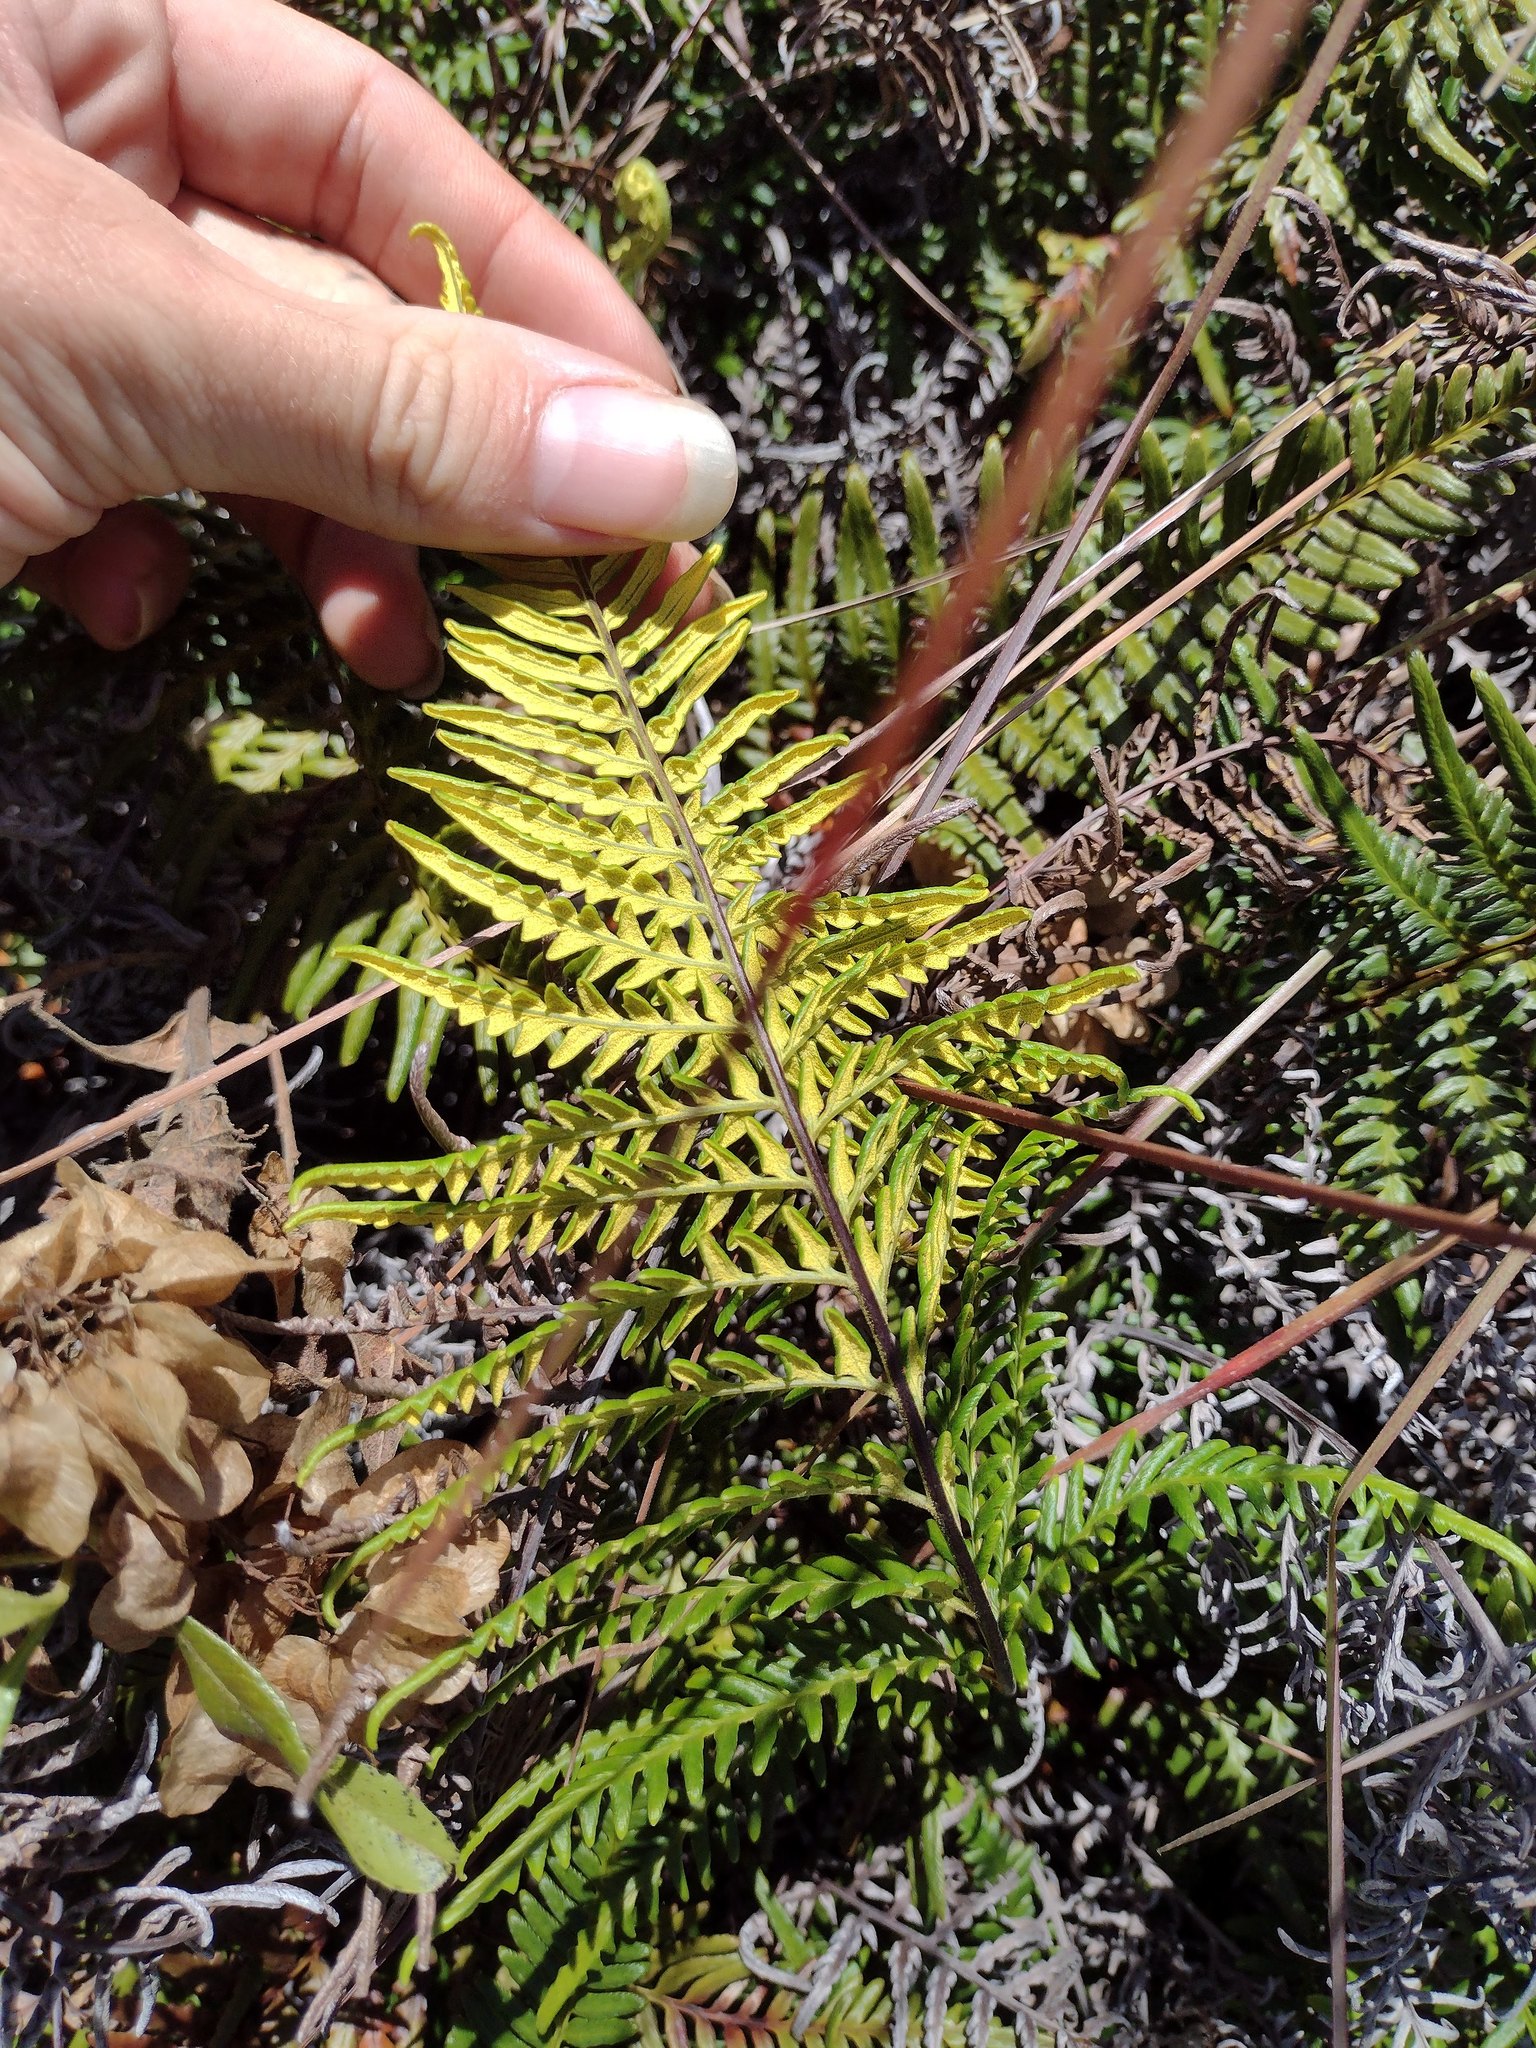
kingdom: Plantae
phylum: Tracheophyta
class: Polypodiopsida
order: Polypodiales
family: Pteridaceae
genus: Pityrogramma
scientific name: Pityrogramma austroamericana
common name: Leatherleaf goldback fern
